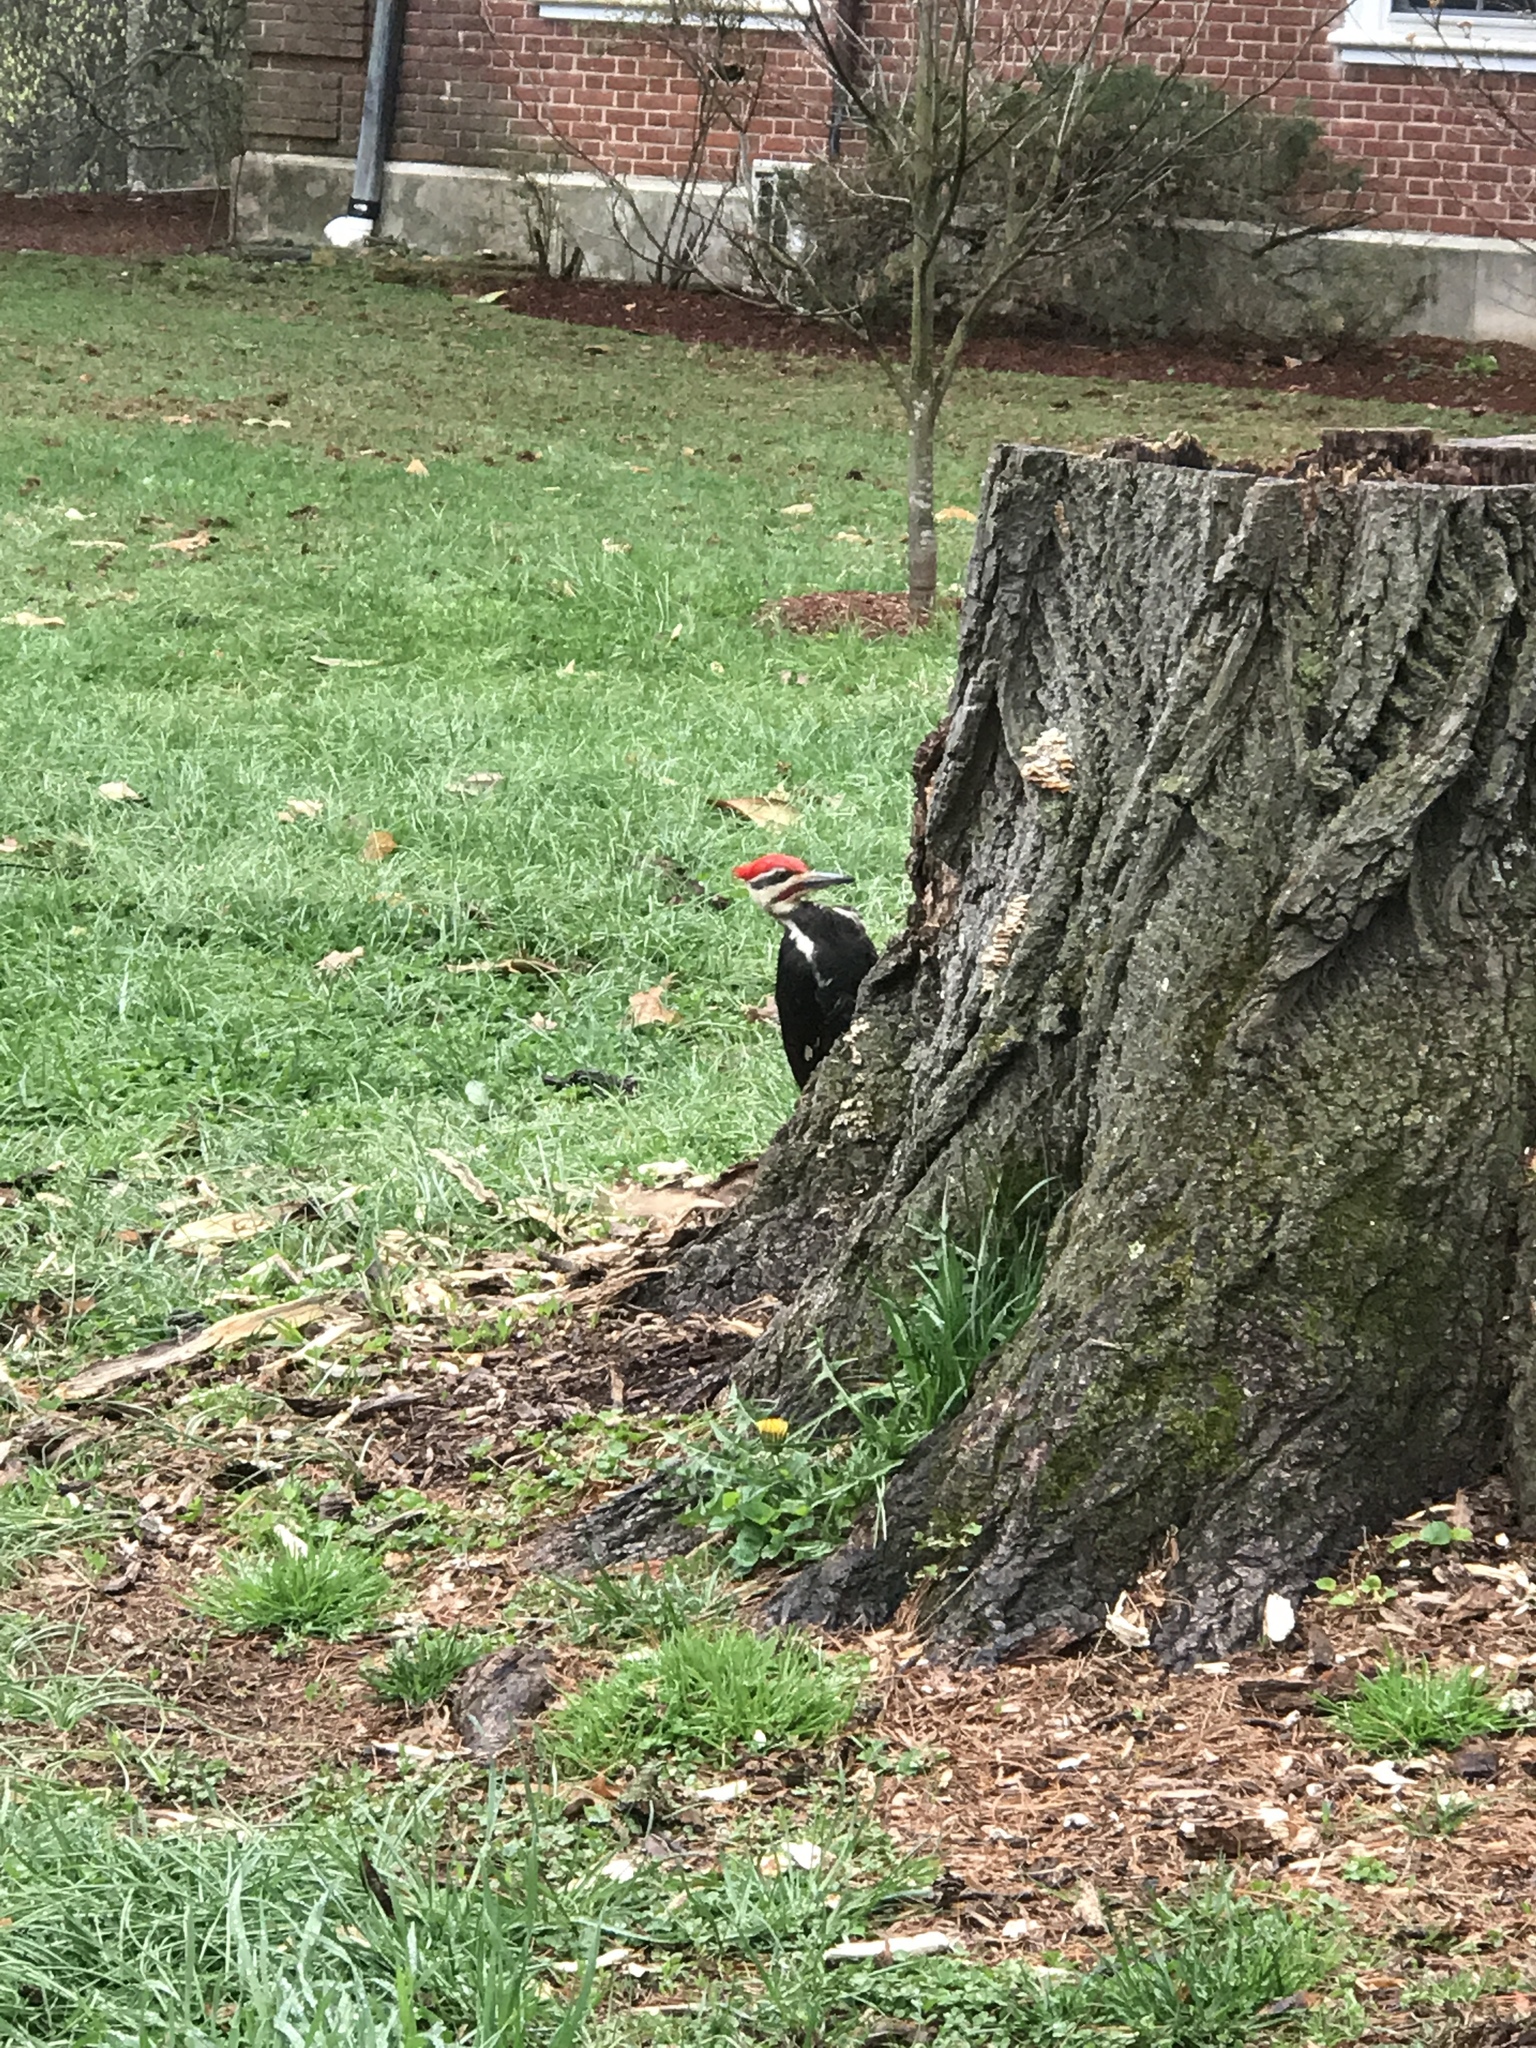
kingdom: Animalia
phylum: Chordata
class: Aves
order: Piciformes
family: Picidae
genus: Dryocopus
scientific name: Dryocopus pileatus
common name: Pileated woodpecker
